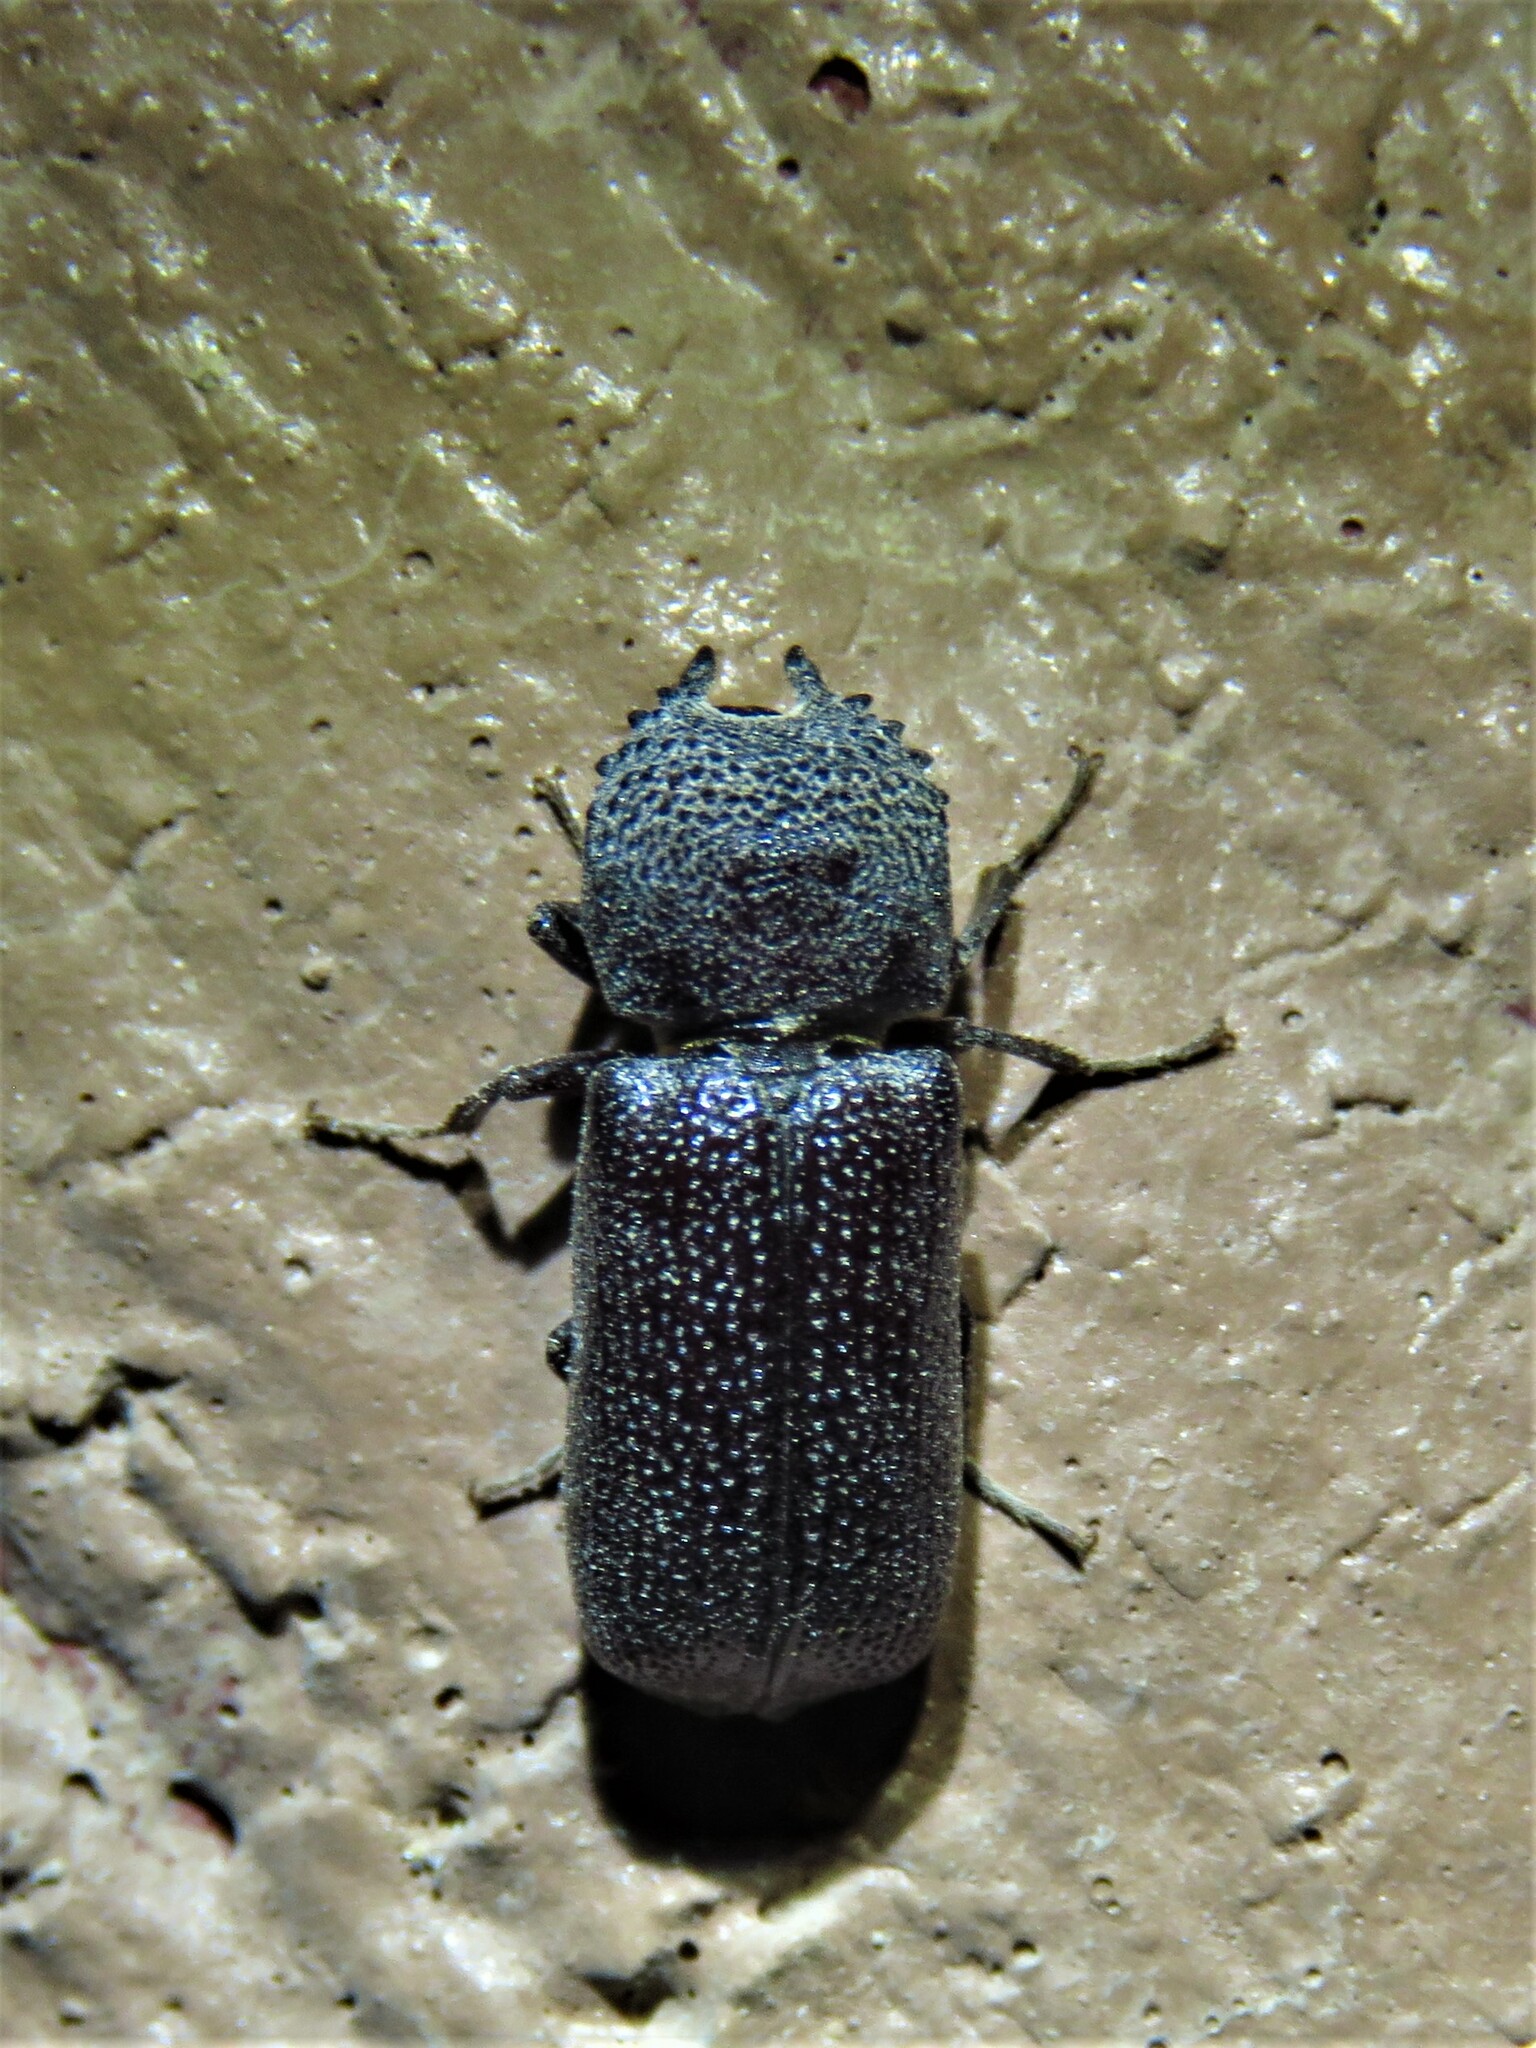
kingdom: Animalia
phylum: Arthropoda
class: Insecta
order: Coleoptera
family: Bostrichidae
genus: Apatides
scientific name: Apatides fortis
